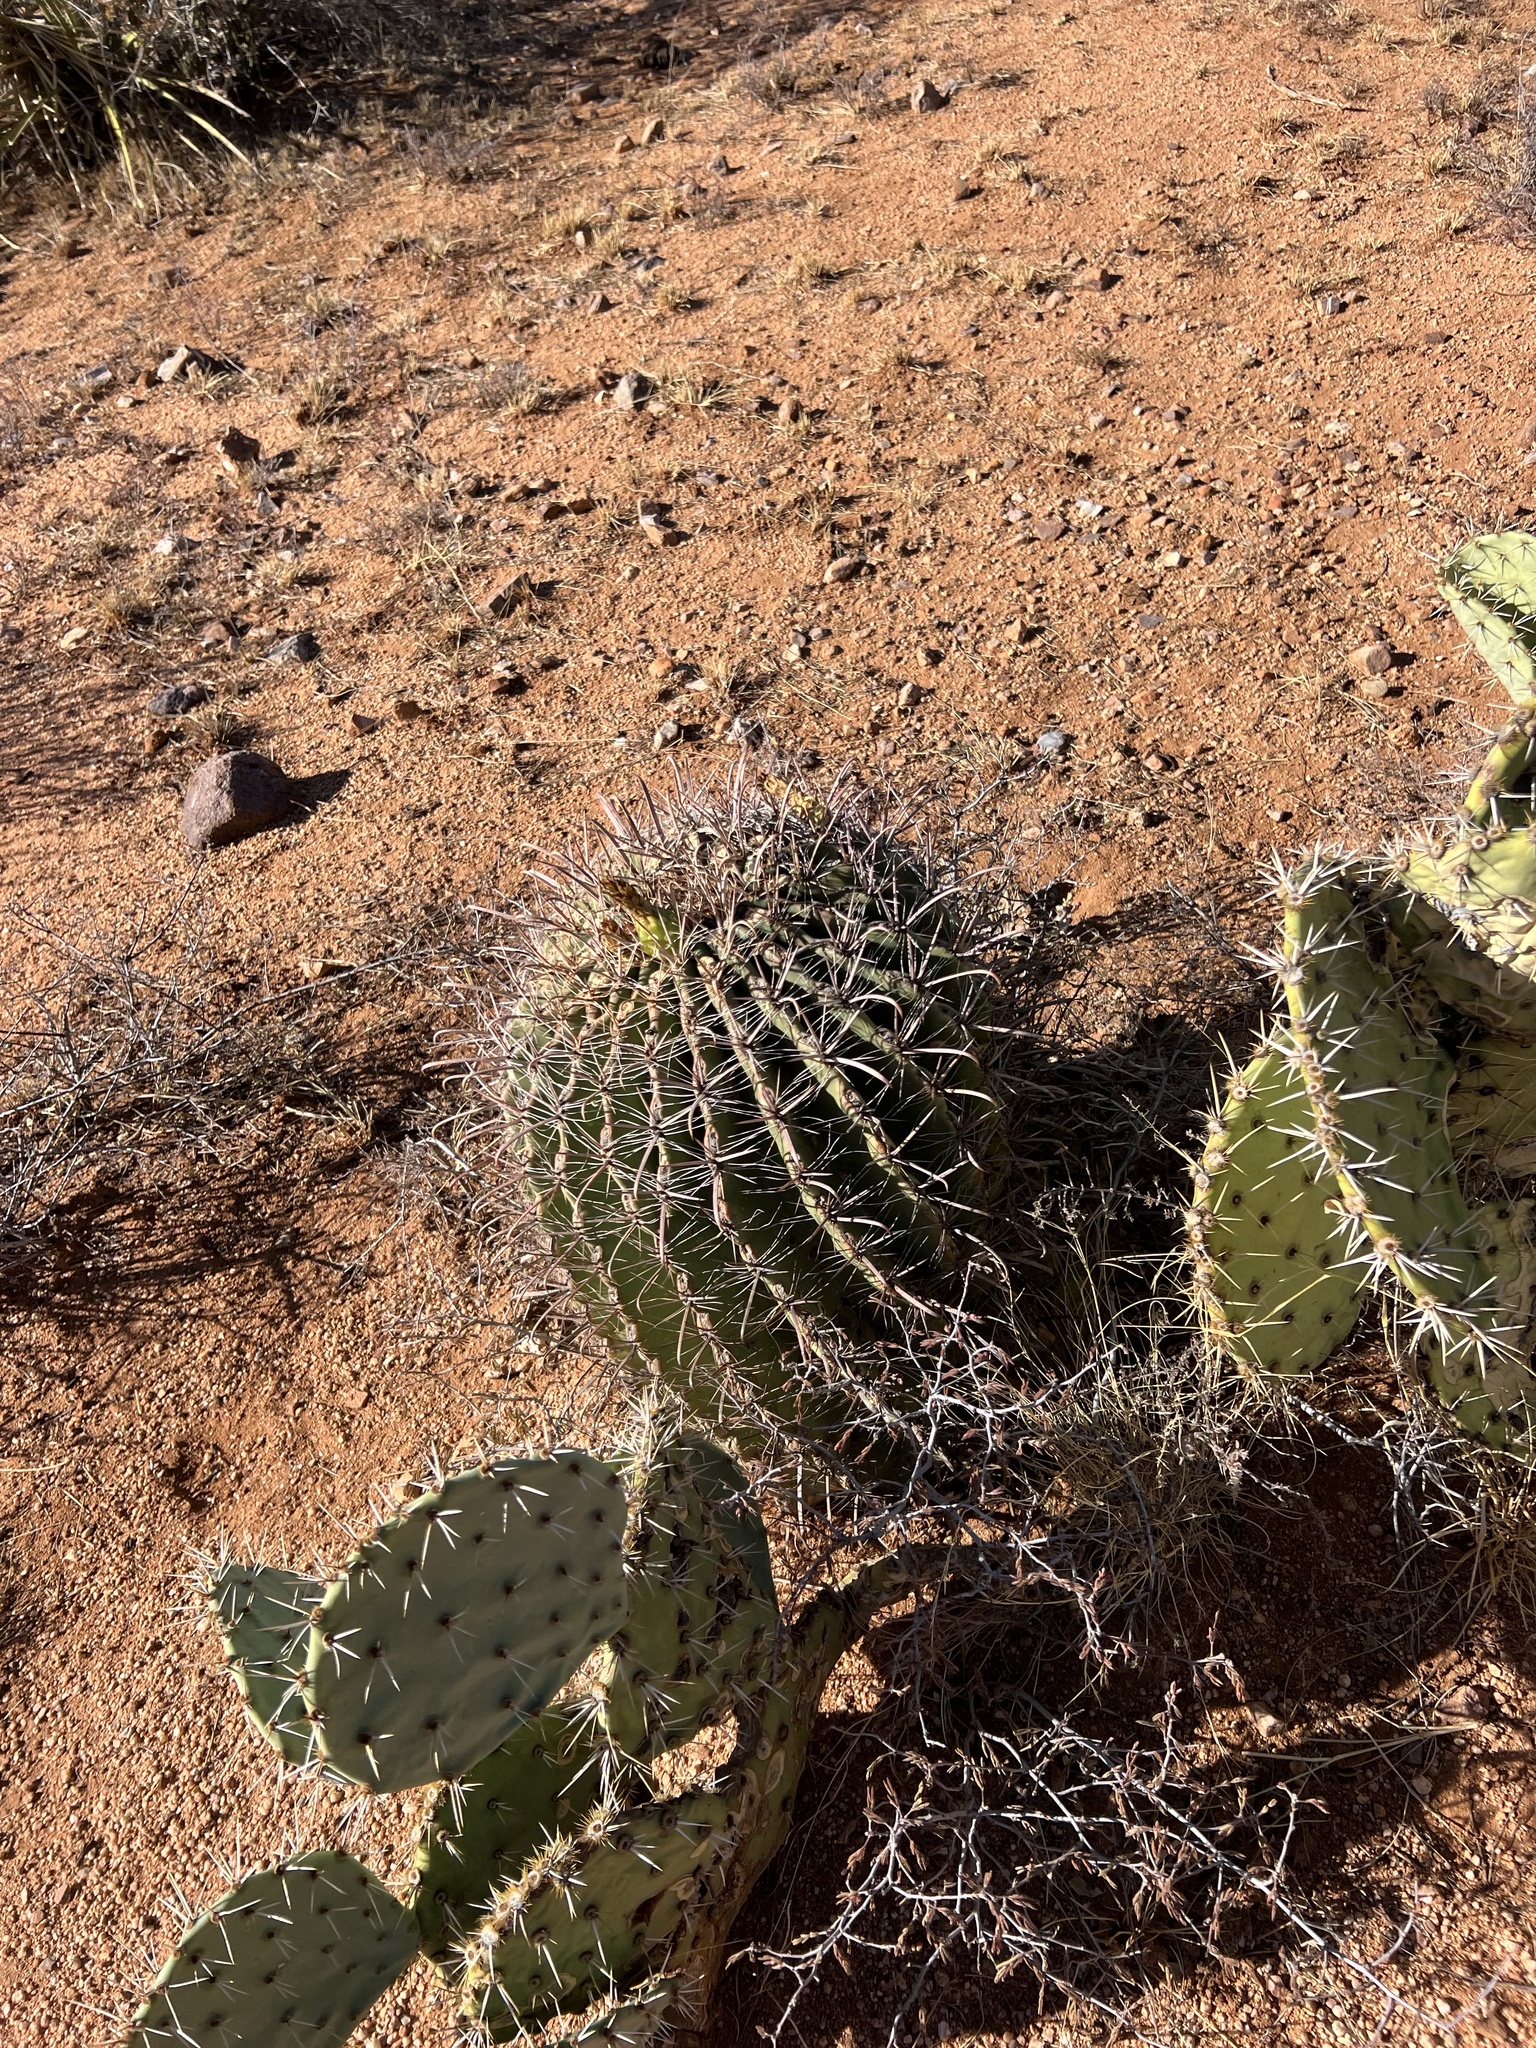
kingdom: Plantae
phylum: Tracheophyta
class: Magnoliopsida
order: Caryophyllales
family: Cactaceae
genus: Ferocactus
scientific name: Ferocactus wislizeni
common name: Candy barrel cactus
